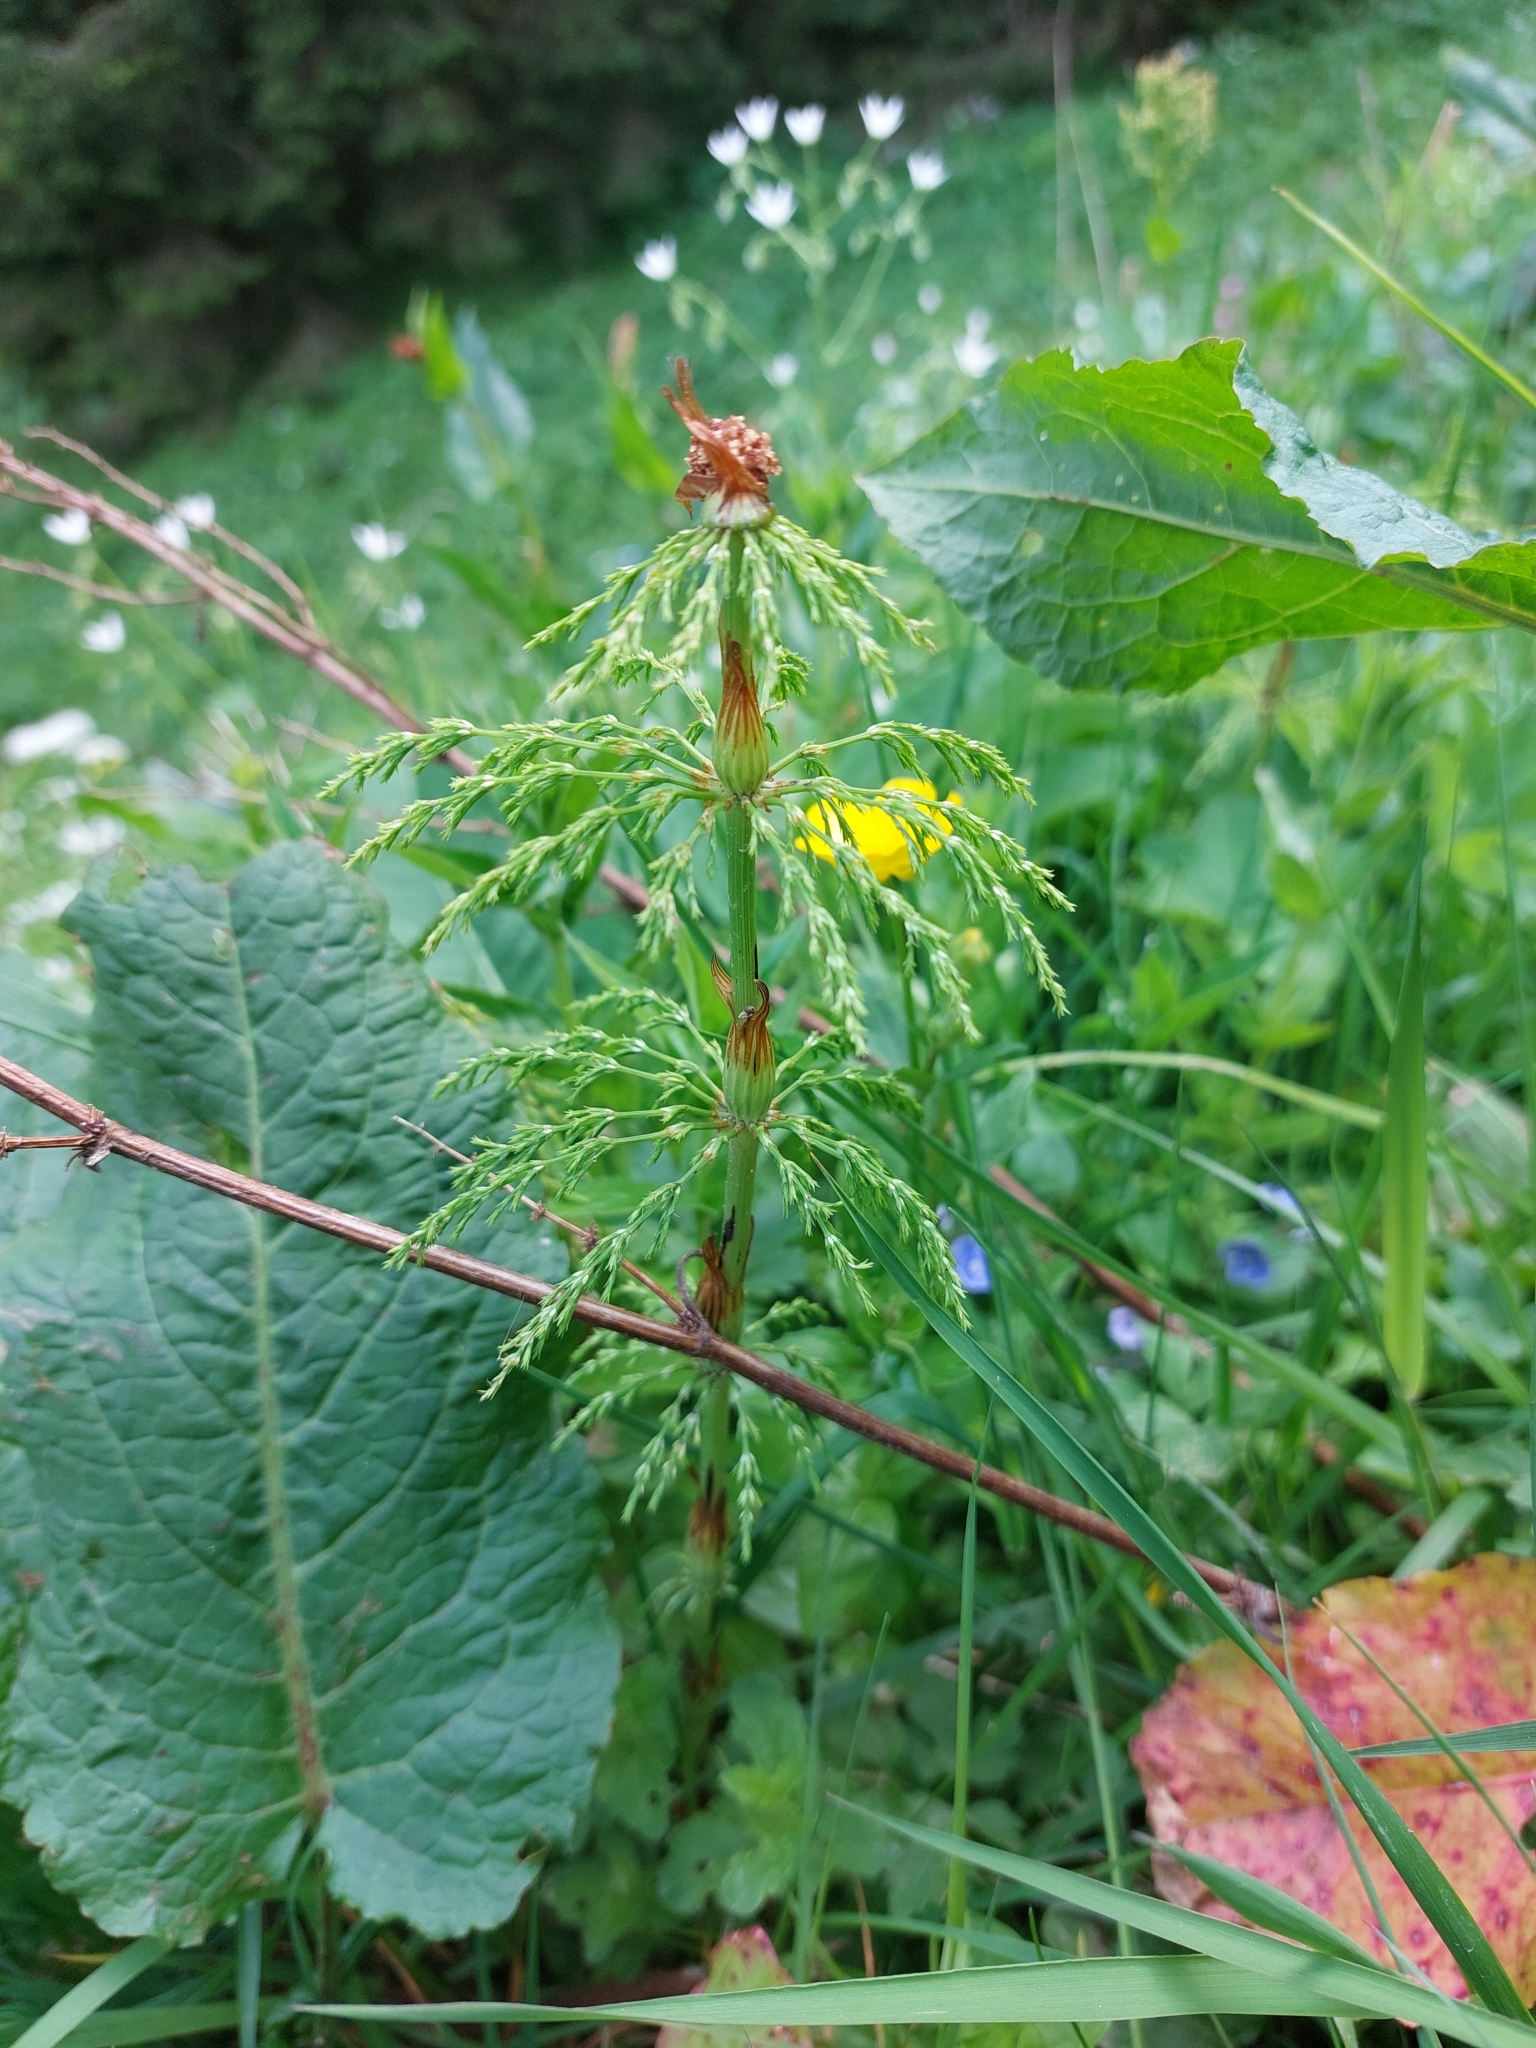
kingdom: Plantae
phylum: Tracheophyta
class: Polypodiopsida
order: Equisetales
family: Equisetaceae
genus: Equisetum
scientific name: Equisetum sylvaticum
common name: Wood horsetail
